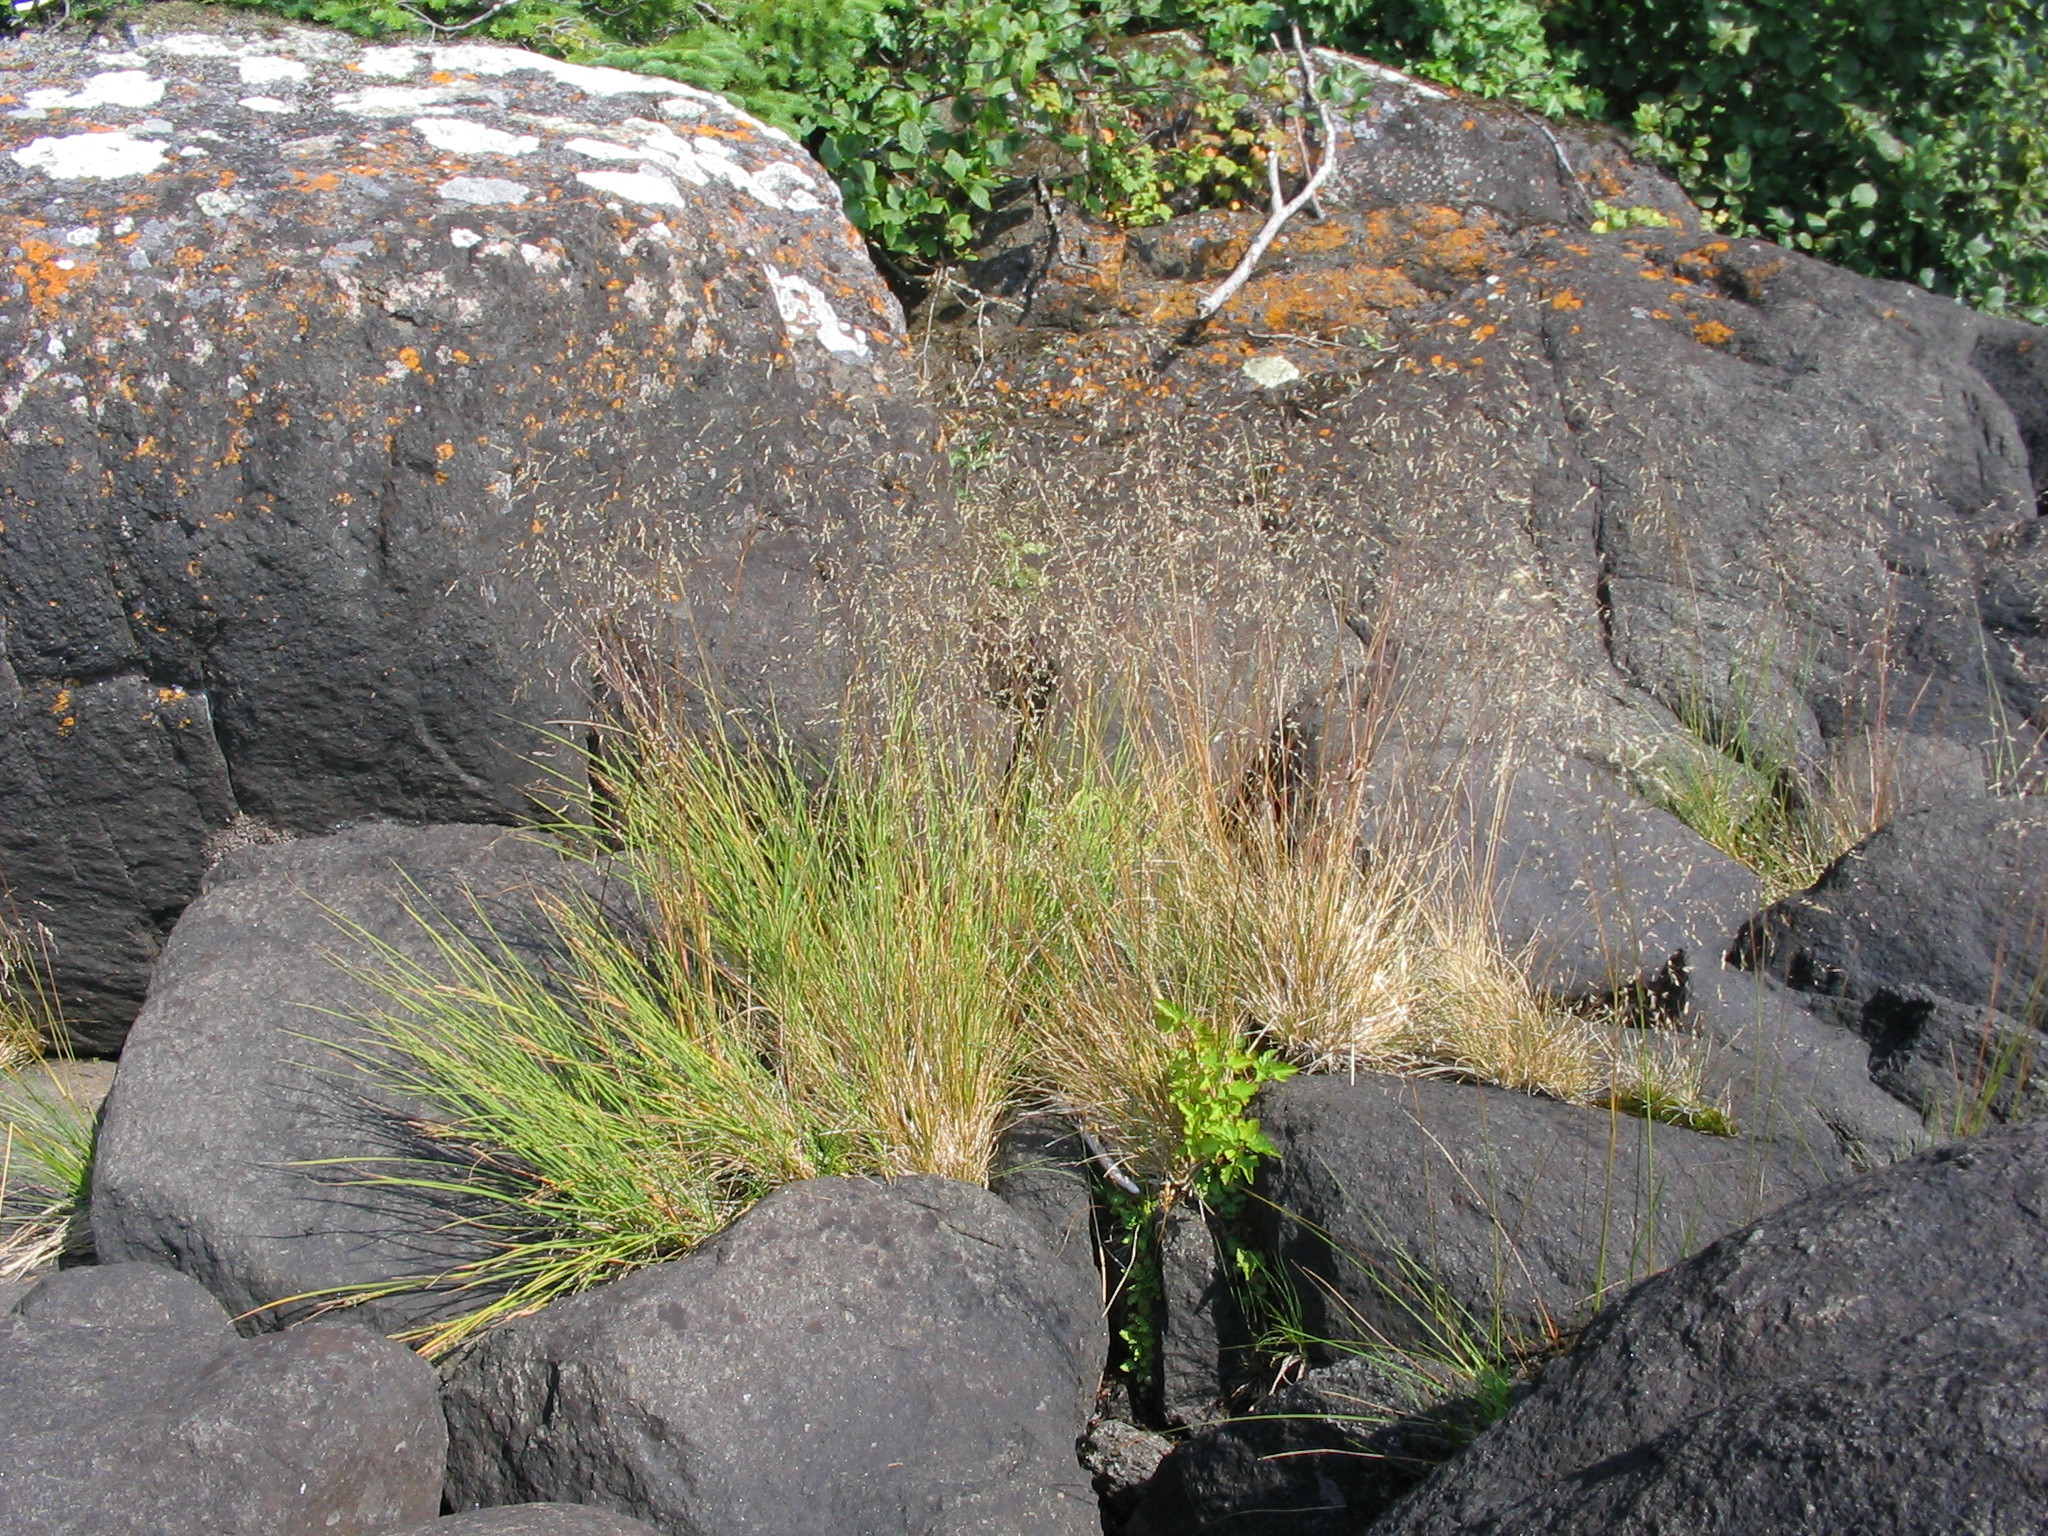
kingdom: Plantae
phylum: Tracheophyta
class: Liliopsida
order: Poales
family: Poaceae
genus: Deschampsia
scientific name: Deschampsia cespitosa
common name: Tufted hair-grass
